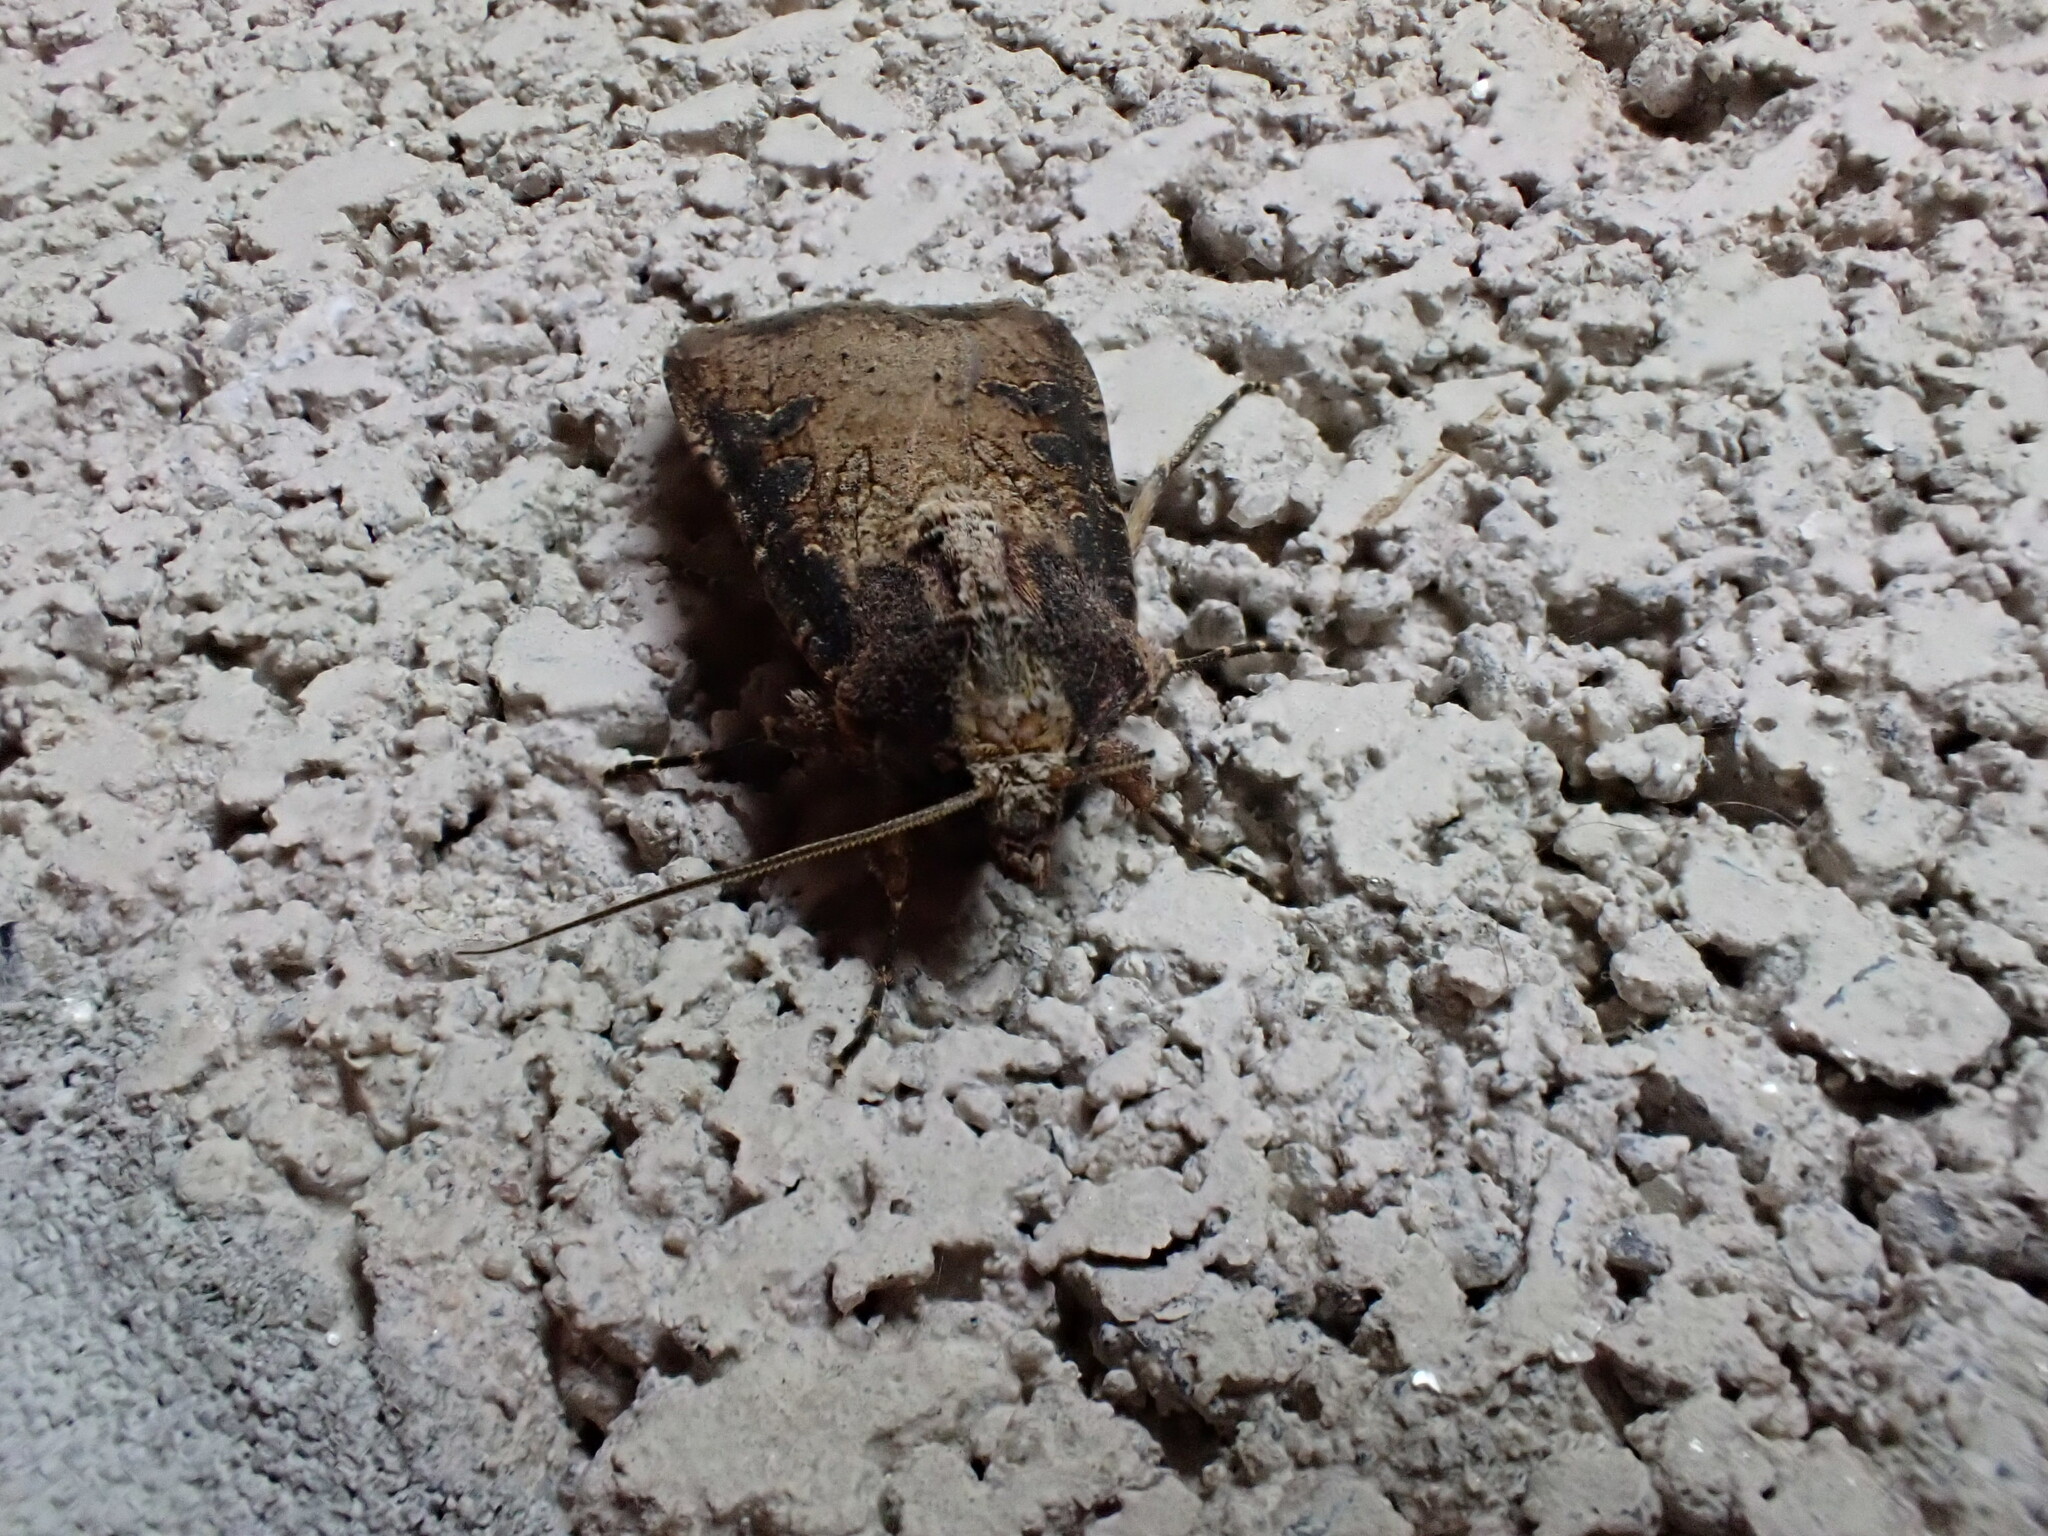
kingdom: Animalia
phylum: Arthropoda
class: Insecta
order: Lepidoptera
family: Noctuidae
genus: Peridroma
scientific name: Peridroma saucia
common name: Pearly underwing
